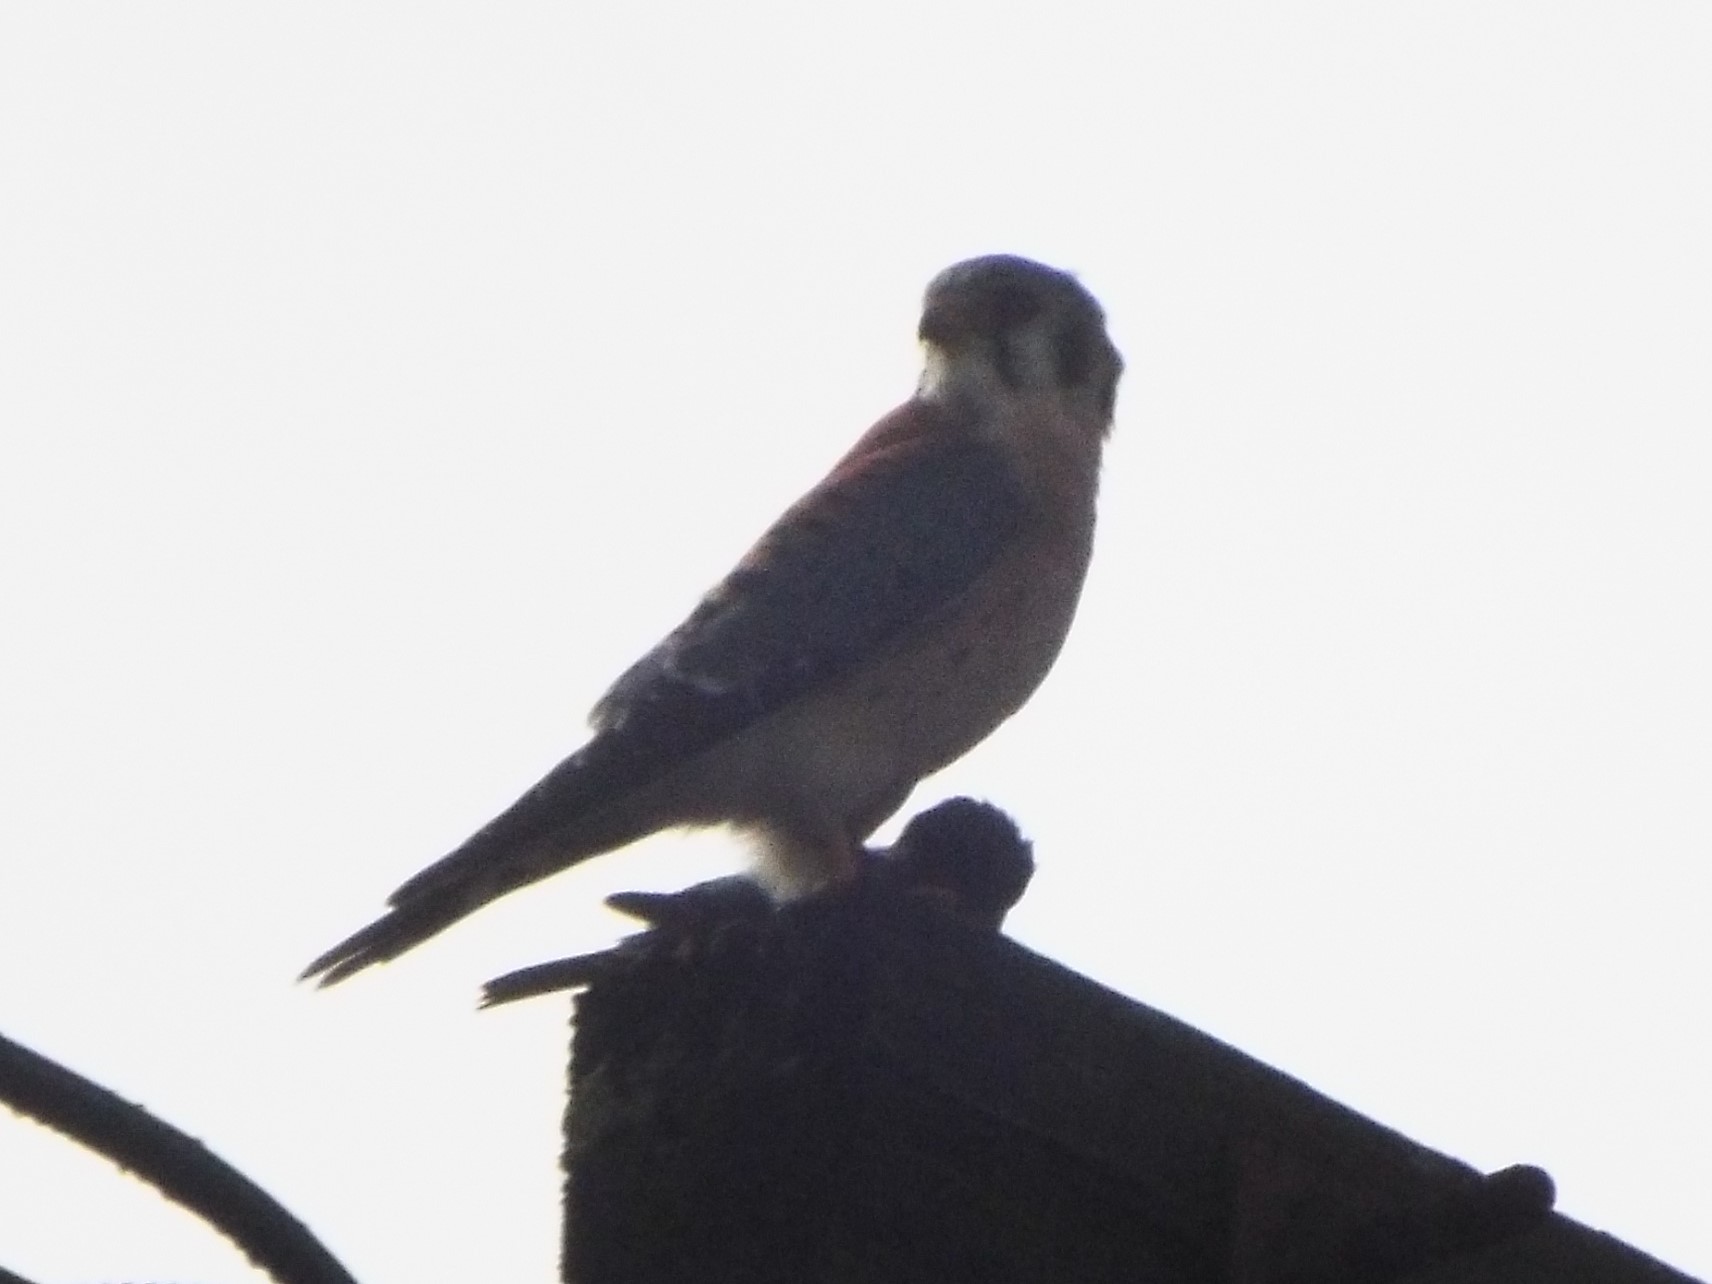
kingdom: Animalia
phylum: Chordata
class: Aves
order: Falconiformes
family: Falconidae
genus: Falco
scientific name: Falco sparverius
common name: American kestrel
